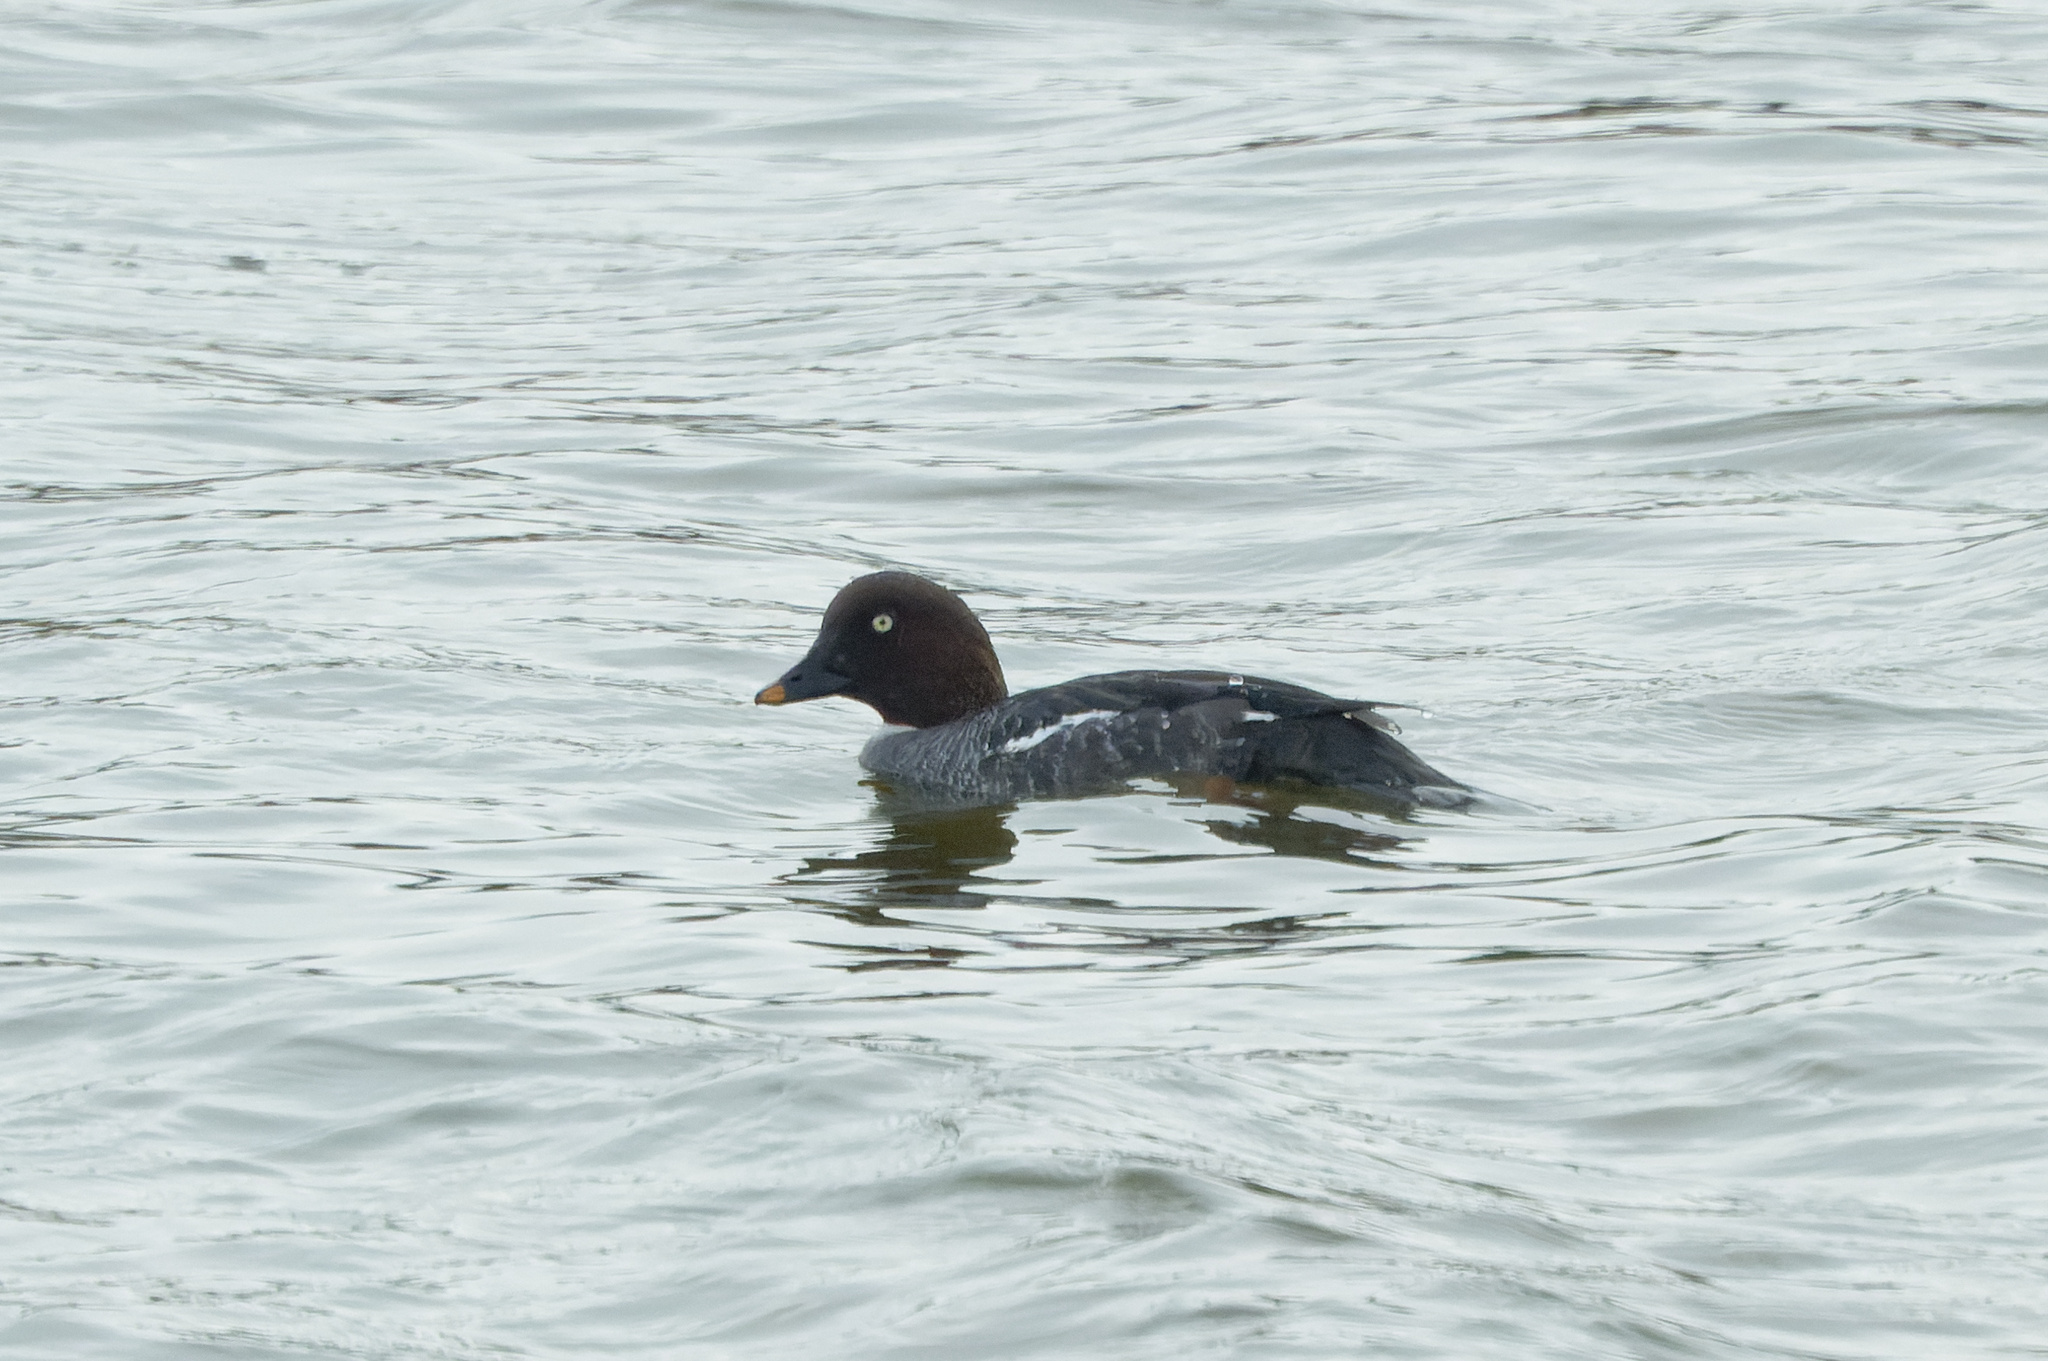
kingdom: Animalia
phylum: Chordata
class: Aves
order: Anseriformes
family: Anatidae
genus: Bucephala
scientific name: Bucephala clangula
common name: Common goldeneye
